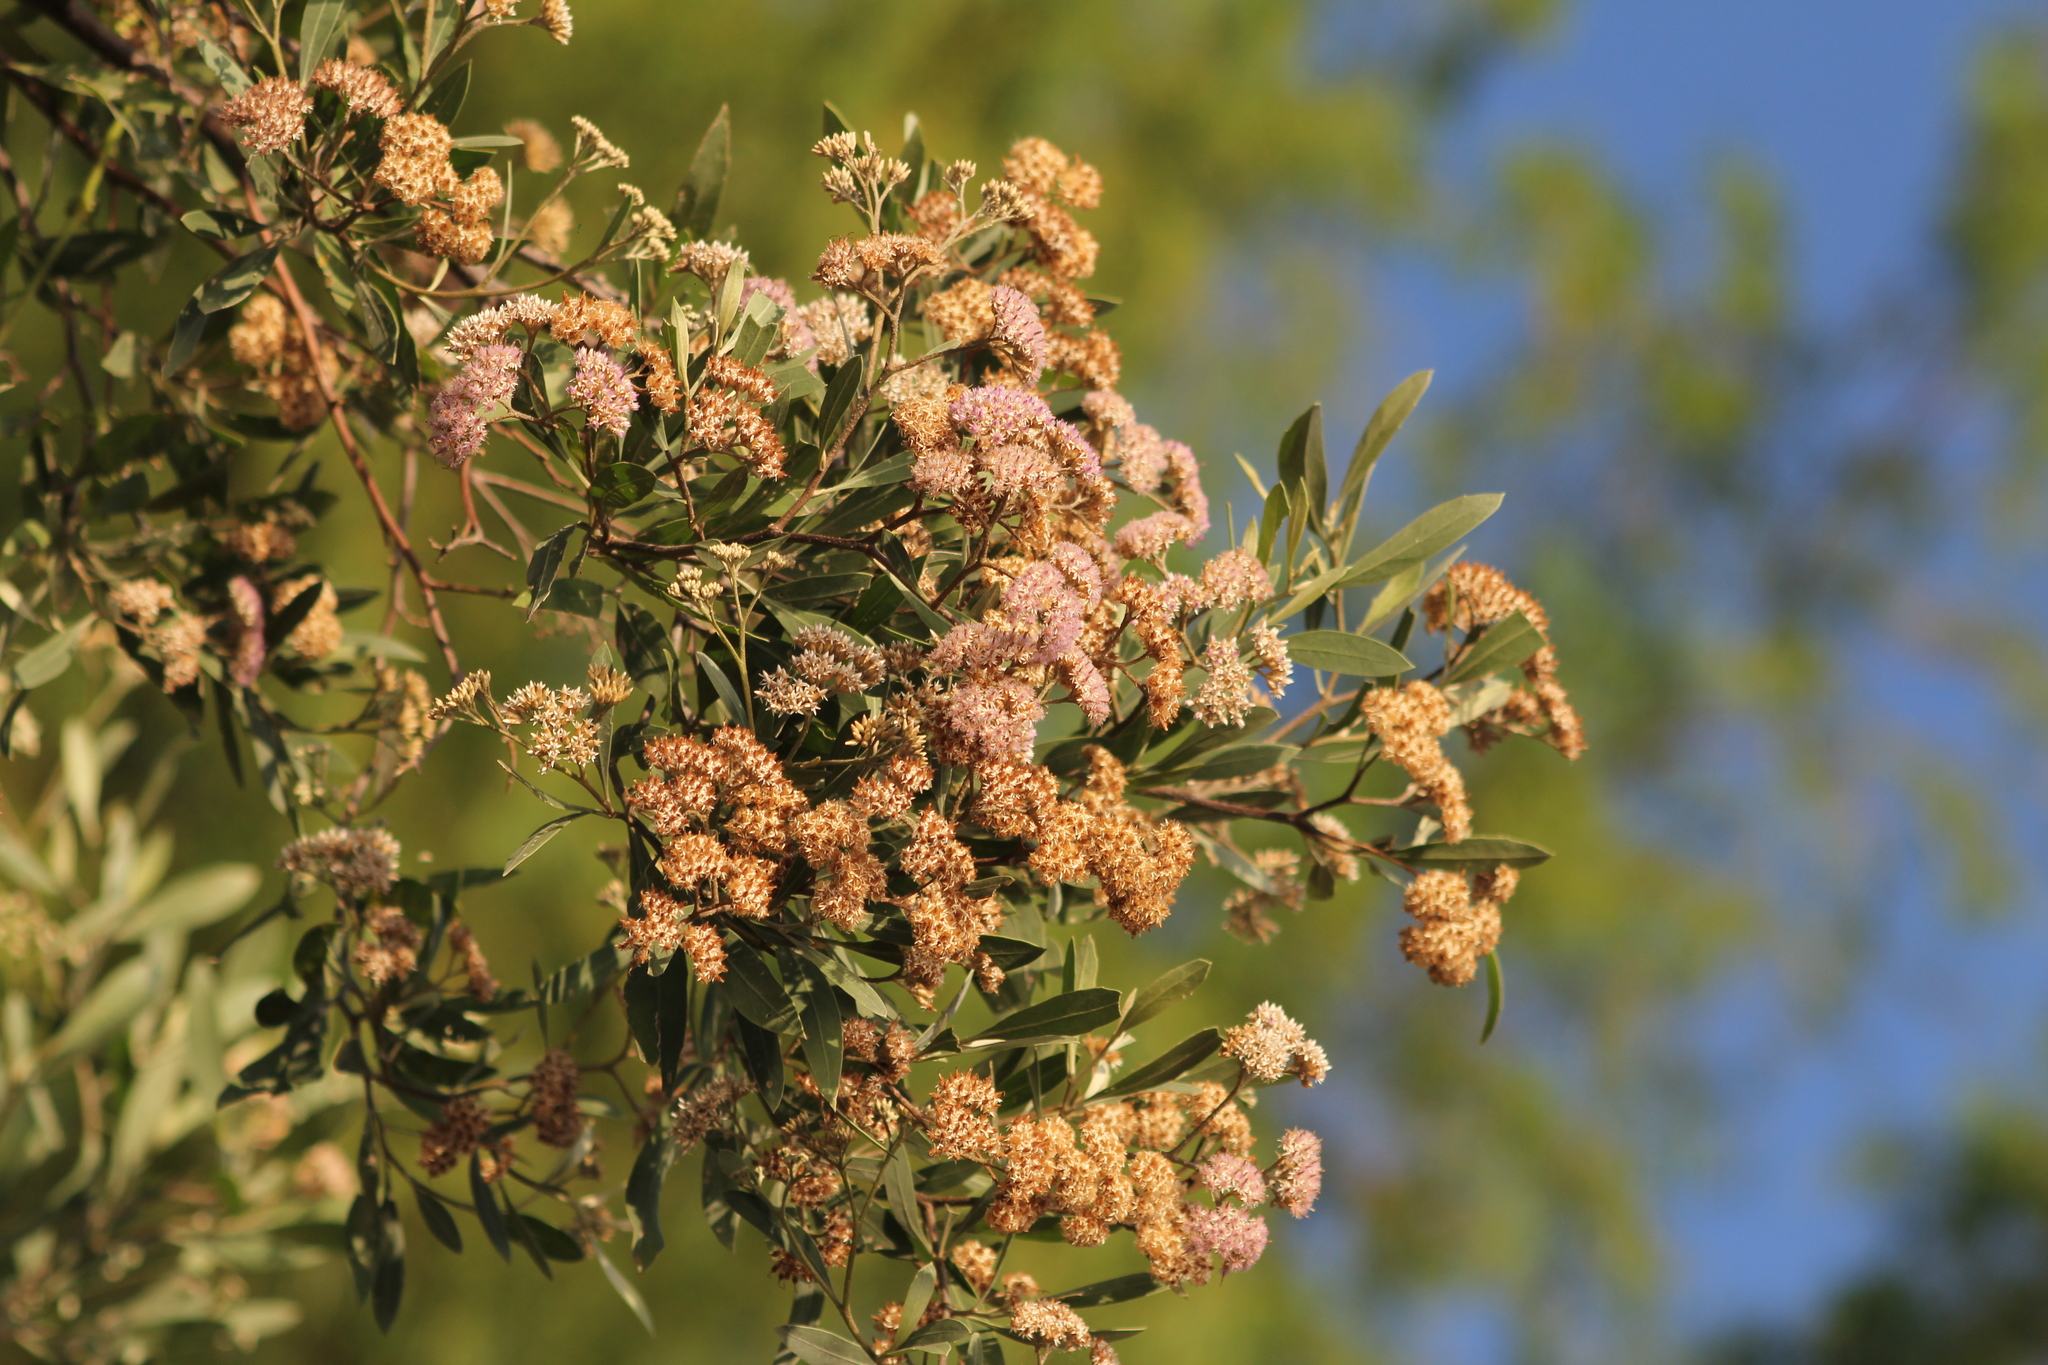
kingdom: Plantae
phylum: Tracheophyta
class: Magnoliopsida
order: Asterales
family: Asteraceae
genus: Tessaria
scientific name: Tessaria integrifolia
